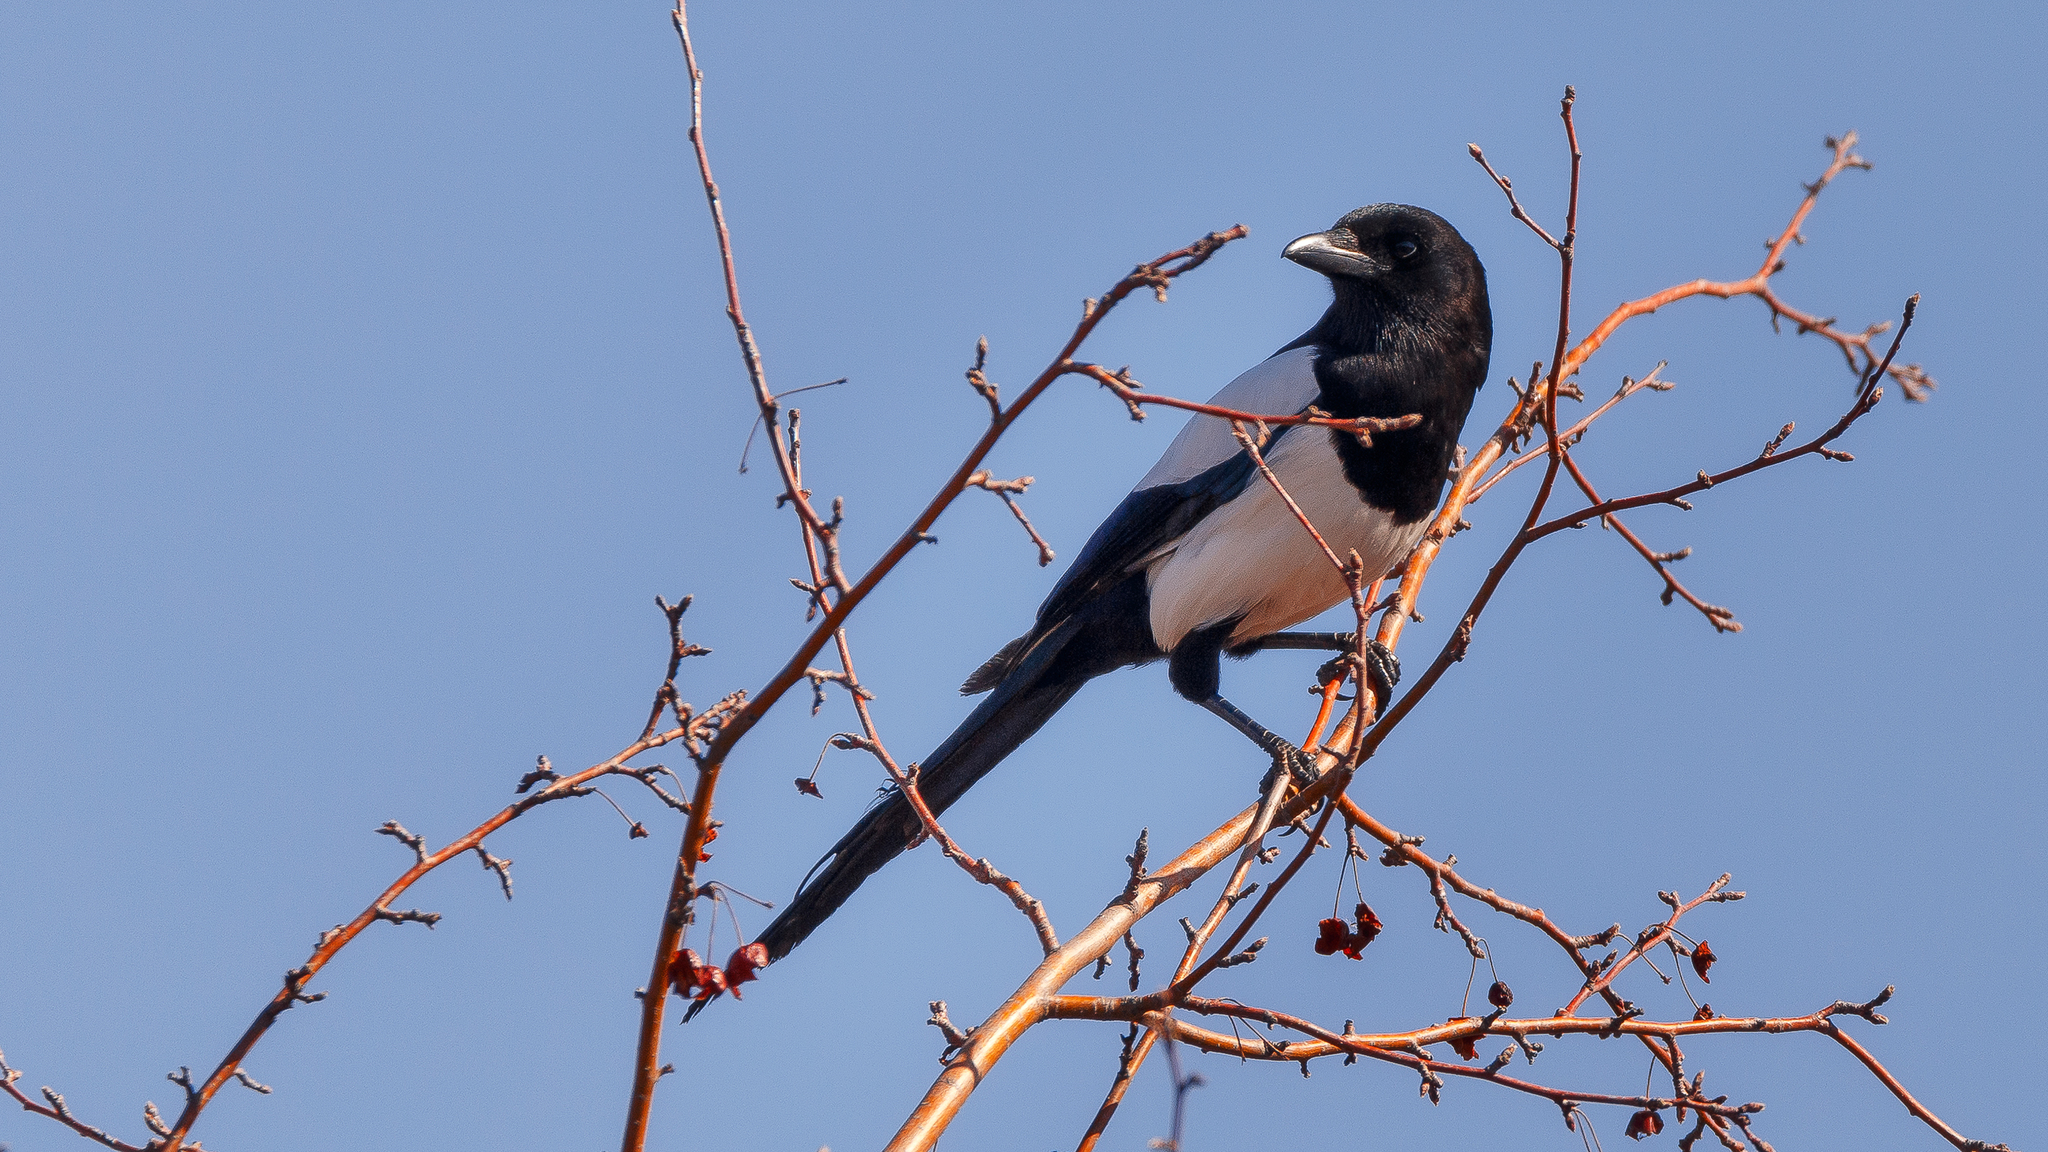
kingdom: Animalia
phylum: Chordata
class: Aves
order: Passeriformes
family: Corvidae
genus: Pica
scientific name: Pica pica
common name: Eurasian magpie
